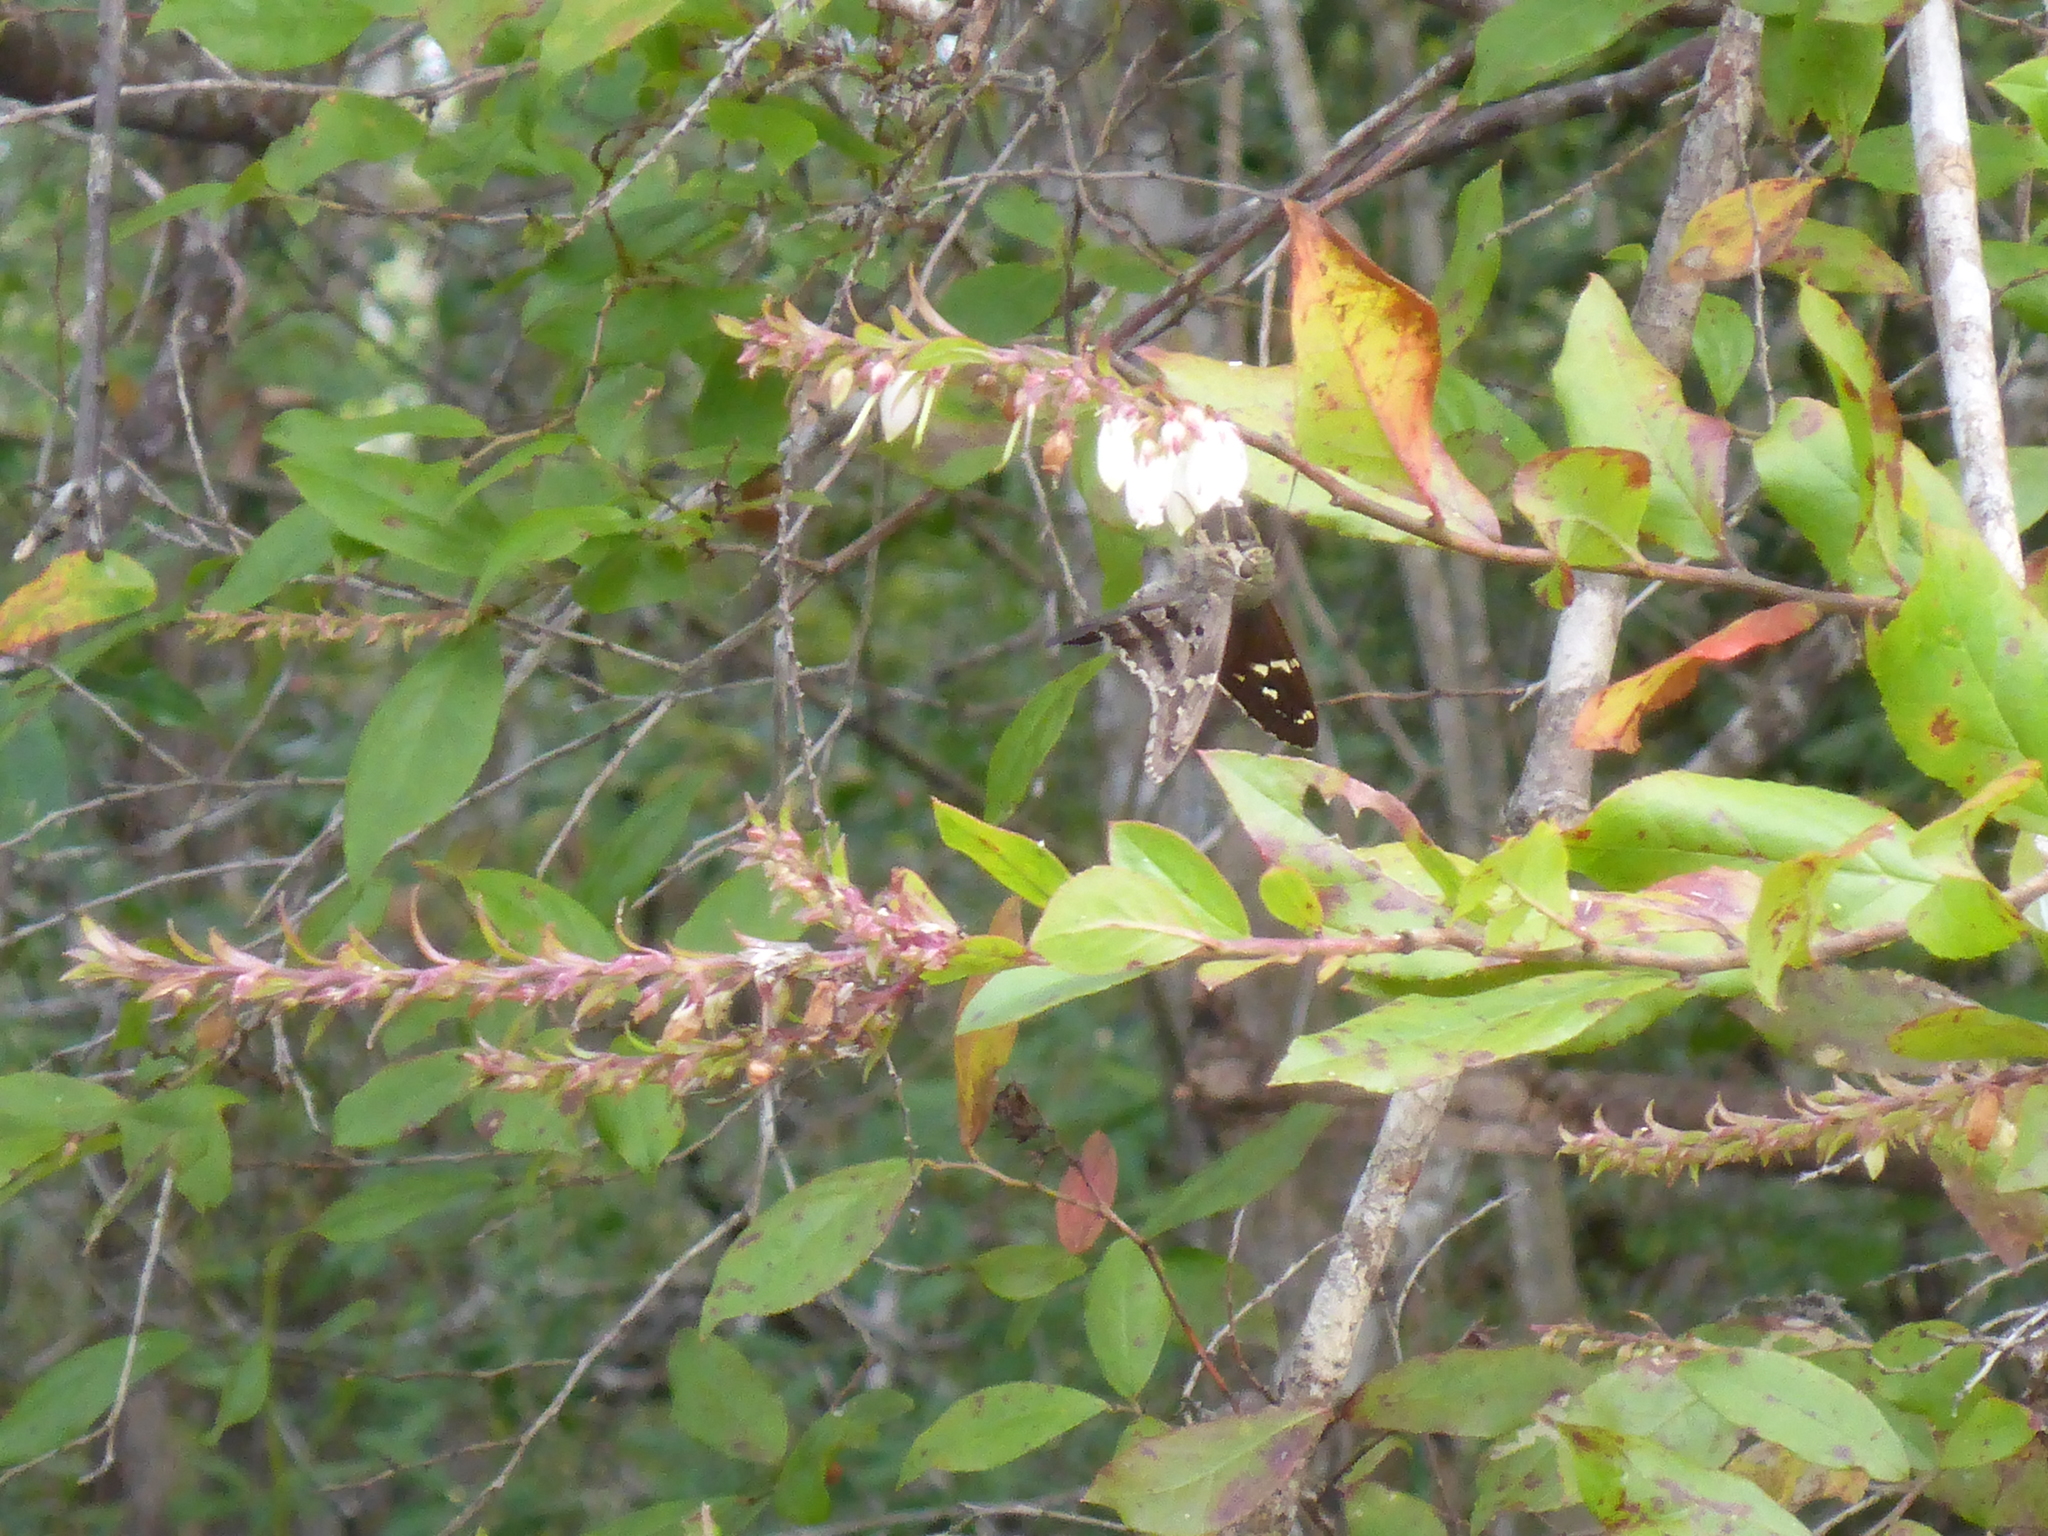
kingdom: Animalia
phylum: Arthropoda
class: Insecta
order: Lepidoptera
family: Hesperiidae
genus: Urbanus
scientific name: Urbanus proteus
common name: Long-tailed skipper
